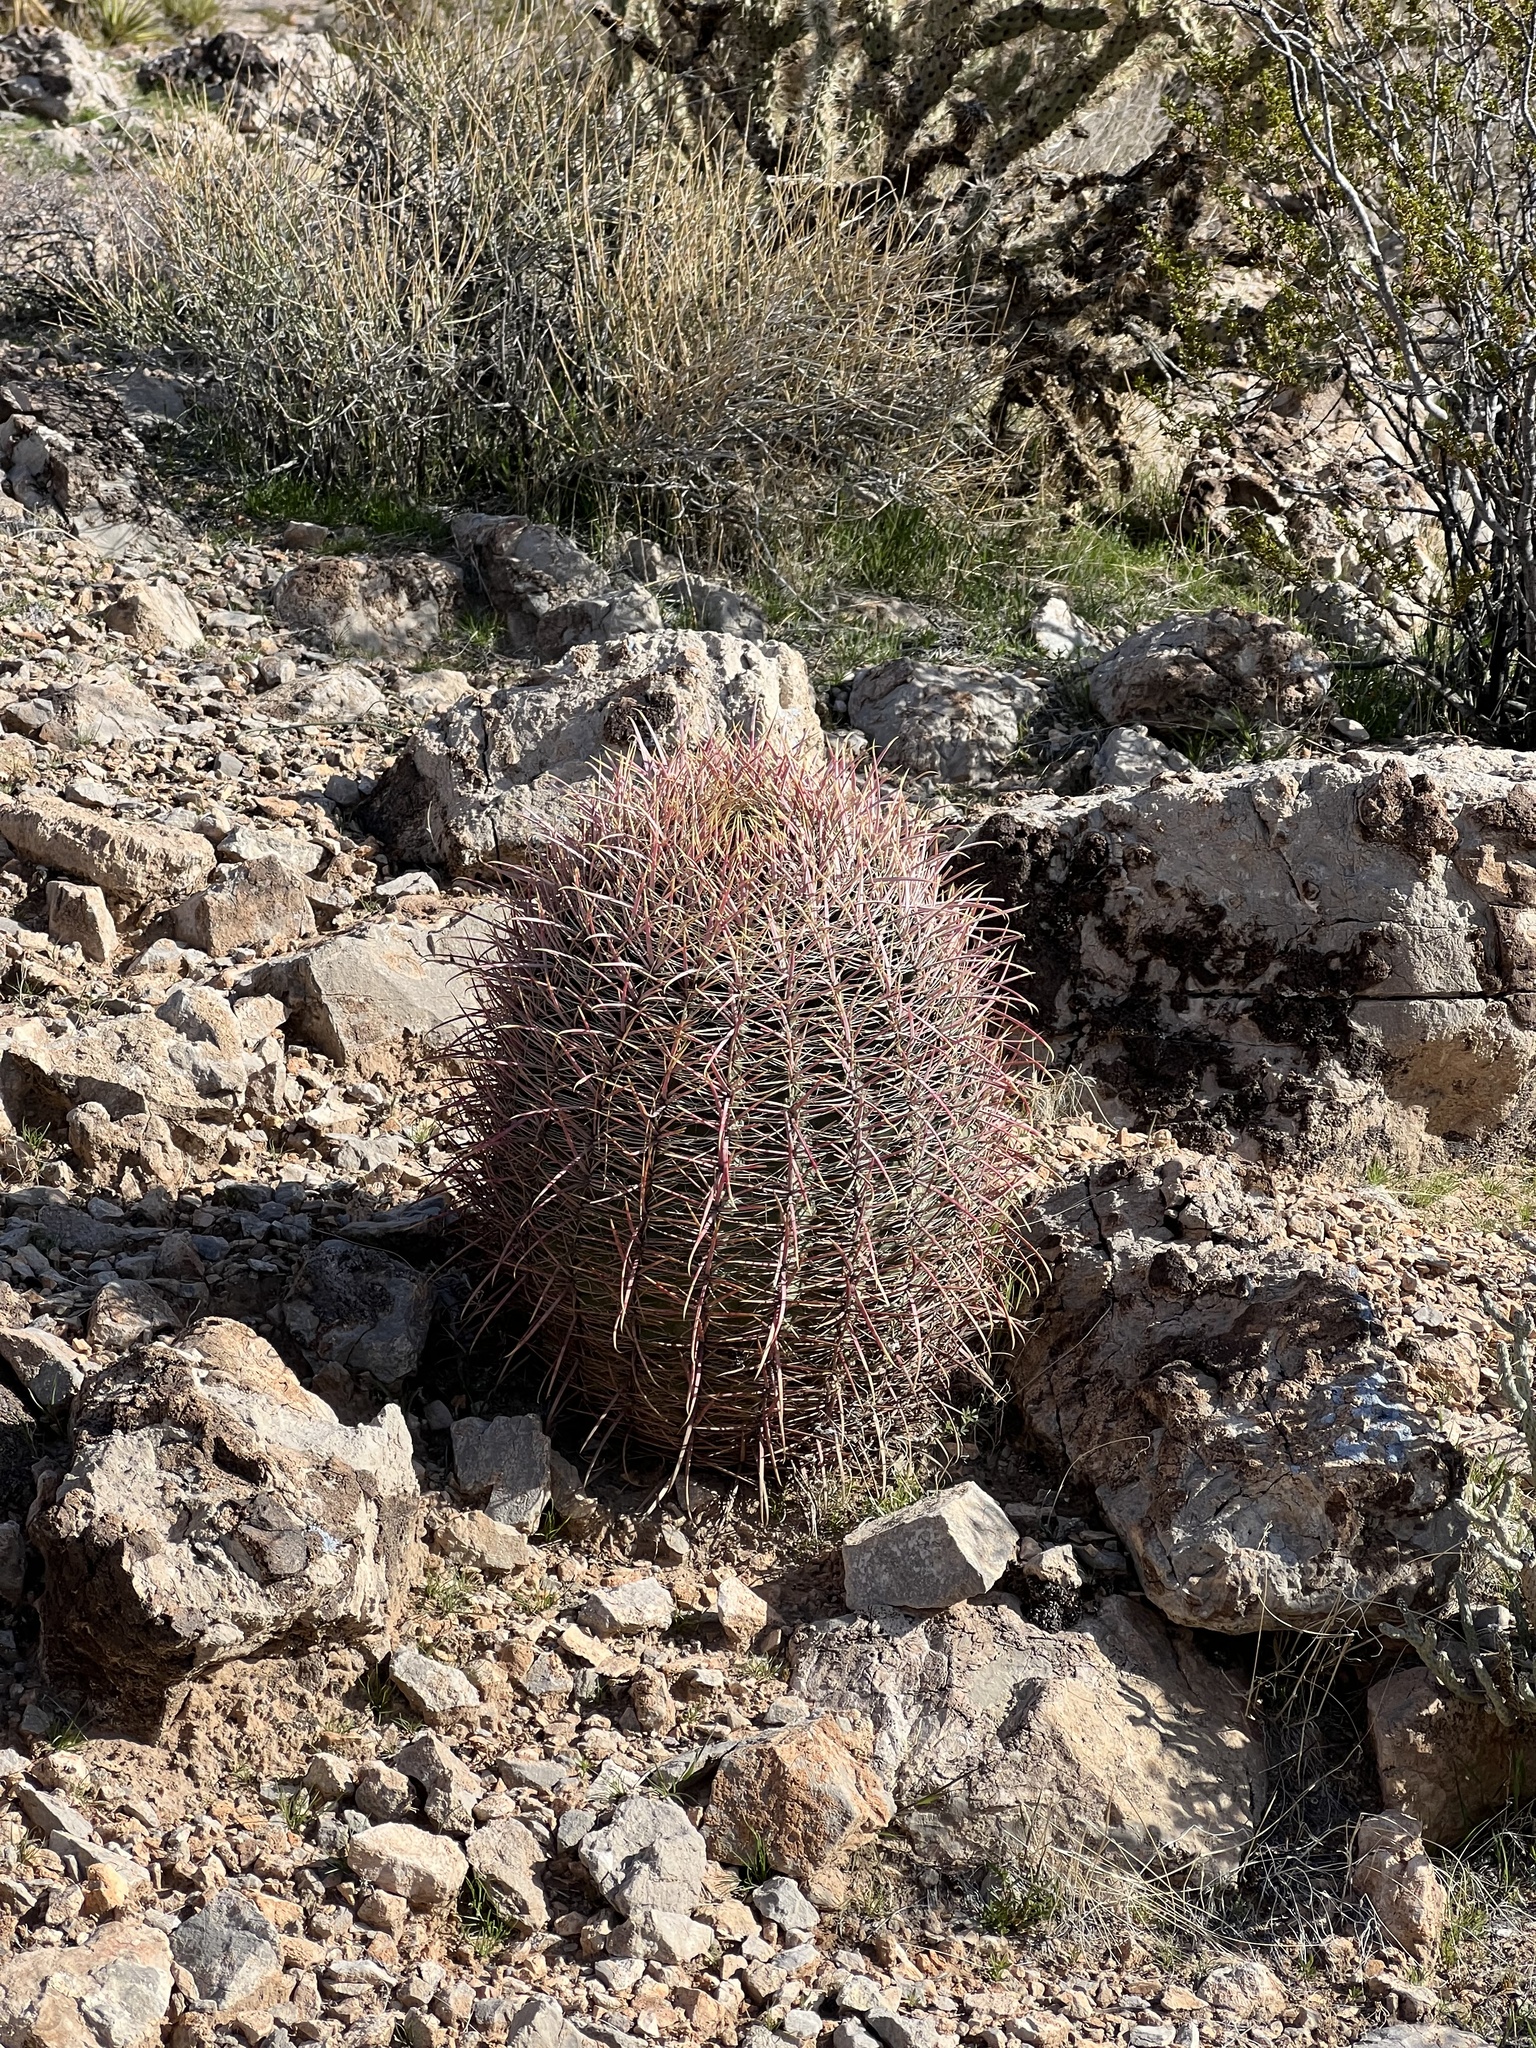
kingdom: Plantae
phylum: Tracheophyta
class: Magnoliopsida
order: Caryophyllales
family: Cactaceae
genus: Ferocactus
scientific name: Ferocactus cylindraceus
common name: California barrel cactus
